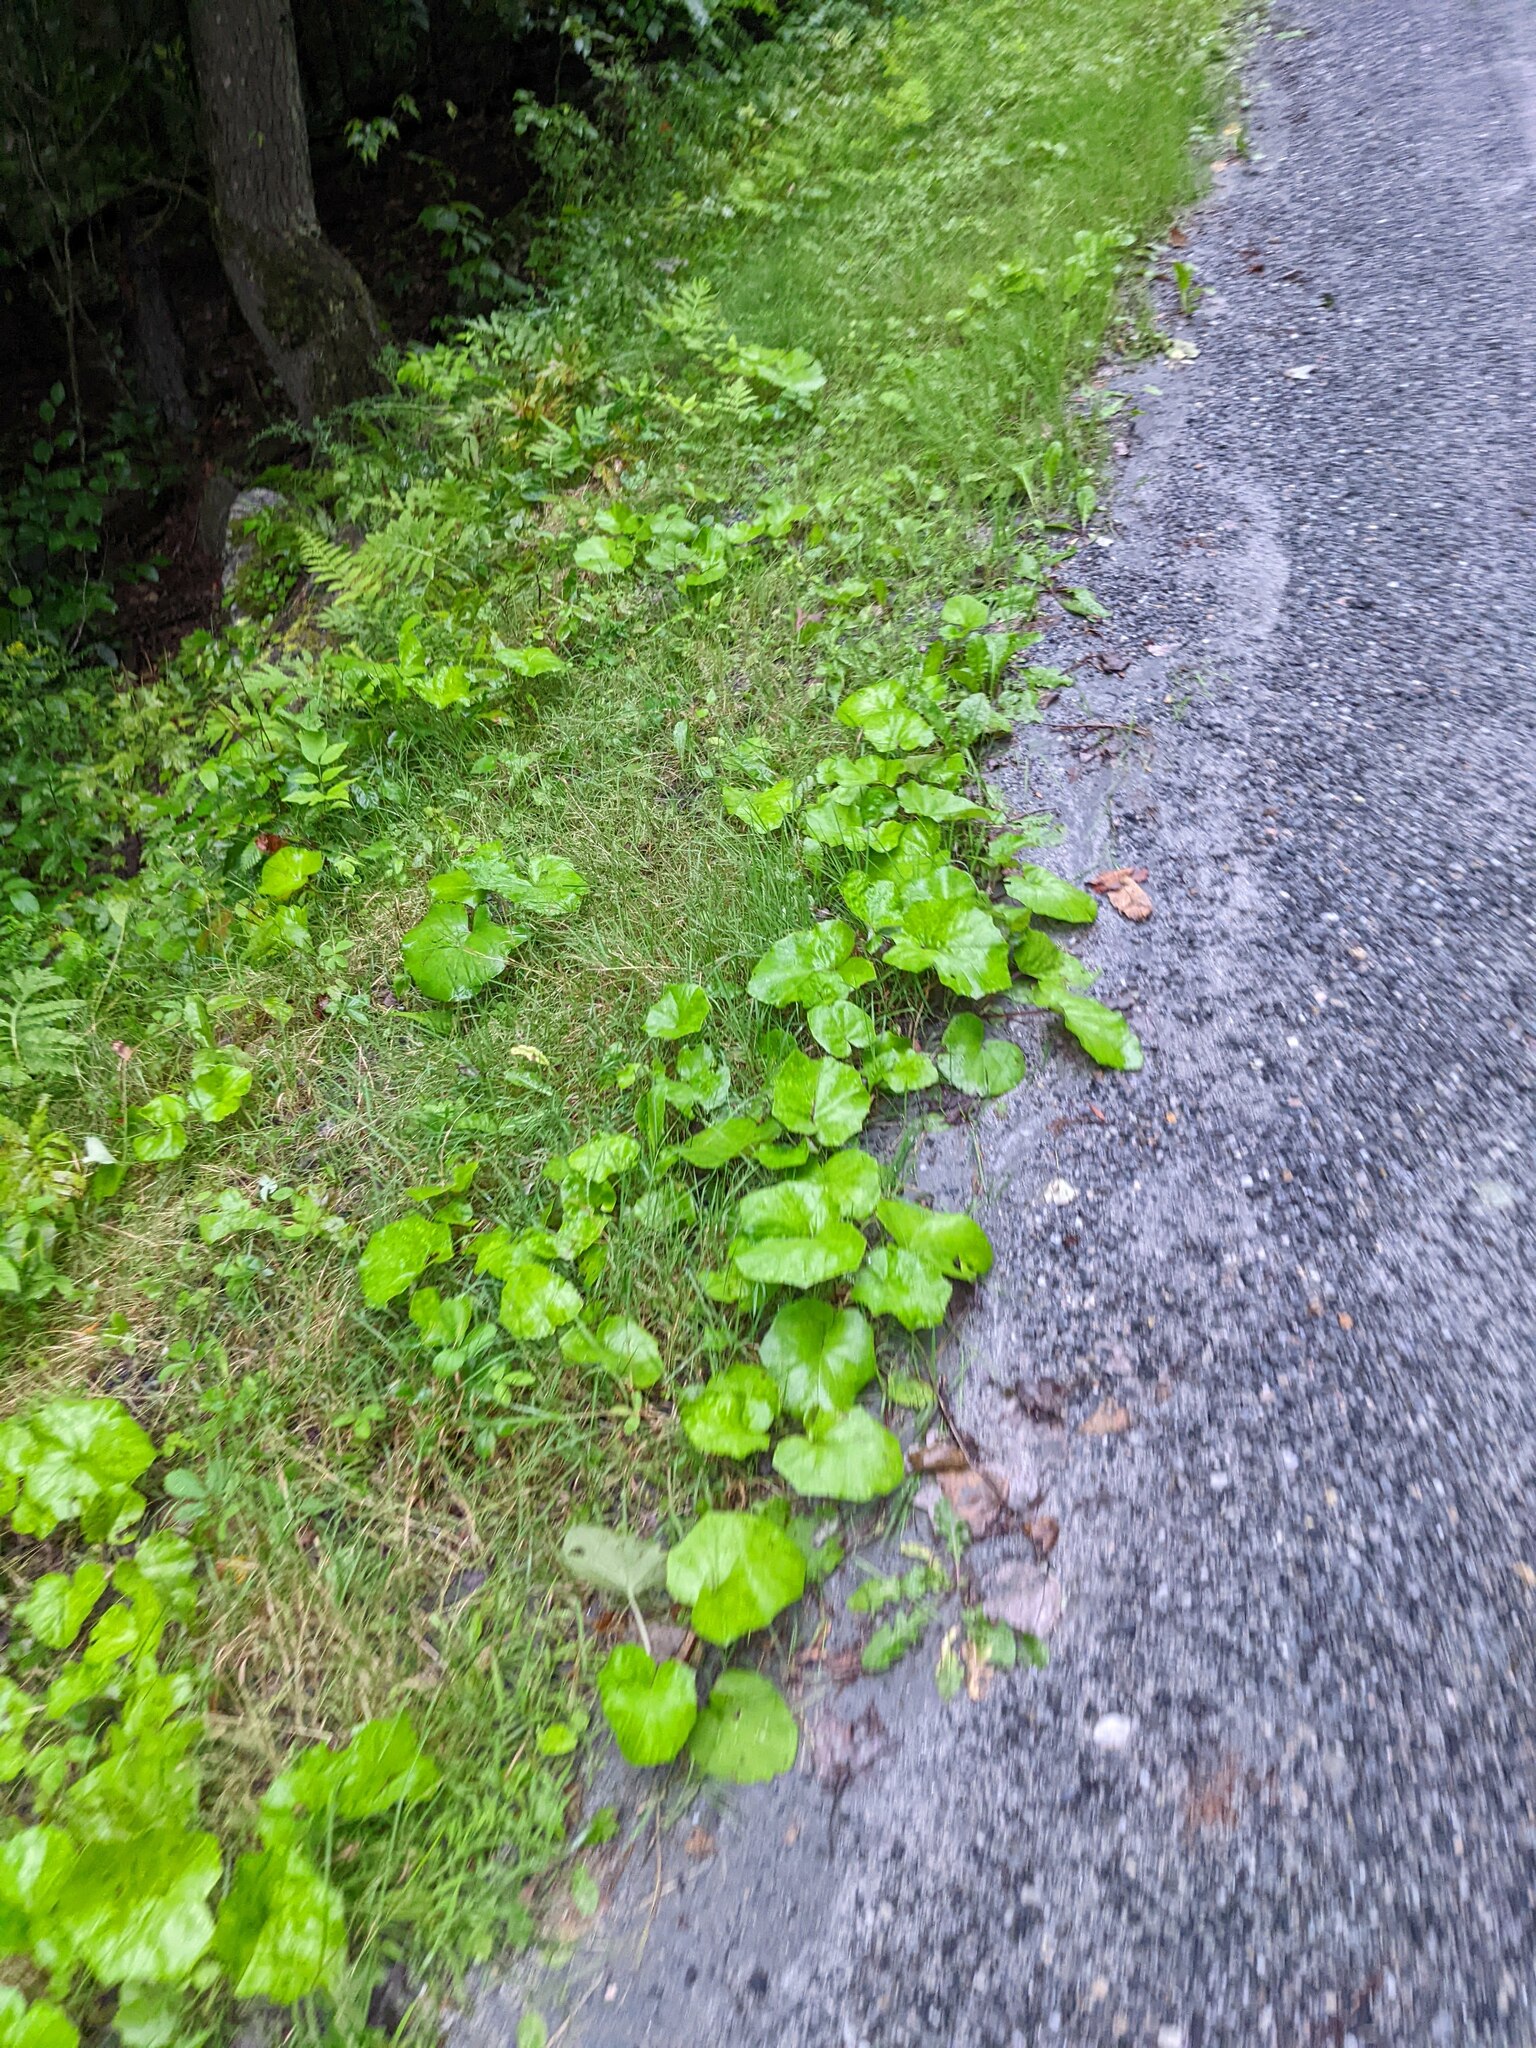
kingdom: Plantae
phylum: Tracheophyta
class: Magnoliopsida
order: Asterales
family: Asteraceae
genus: Tussilago
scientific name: Tussilago farfara
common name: Coltsfoot
